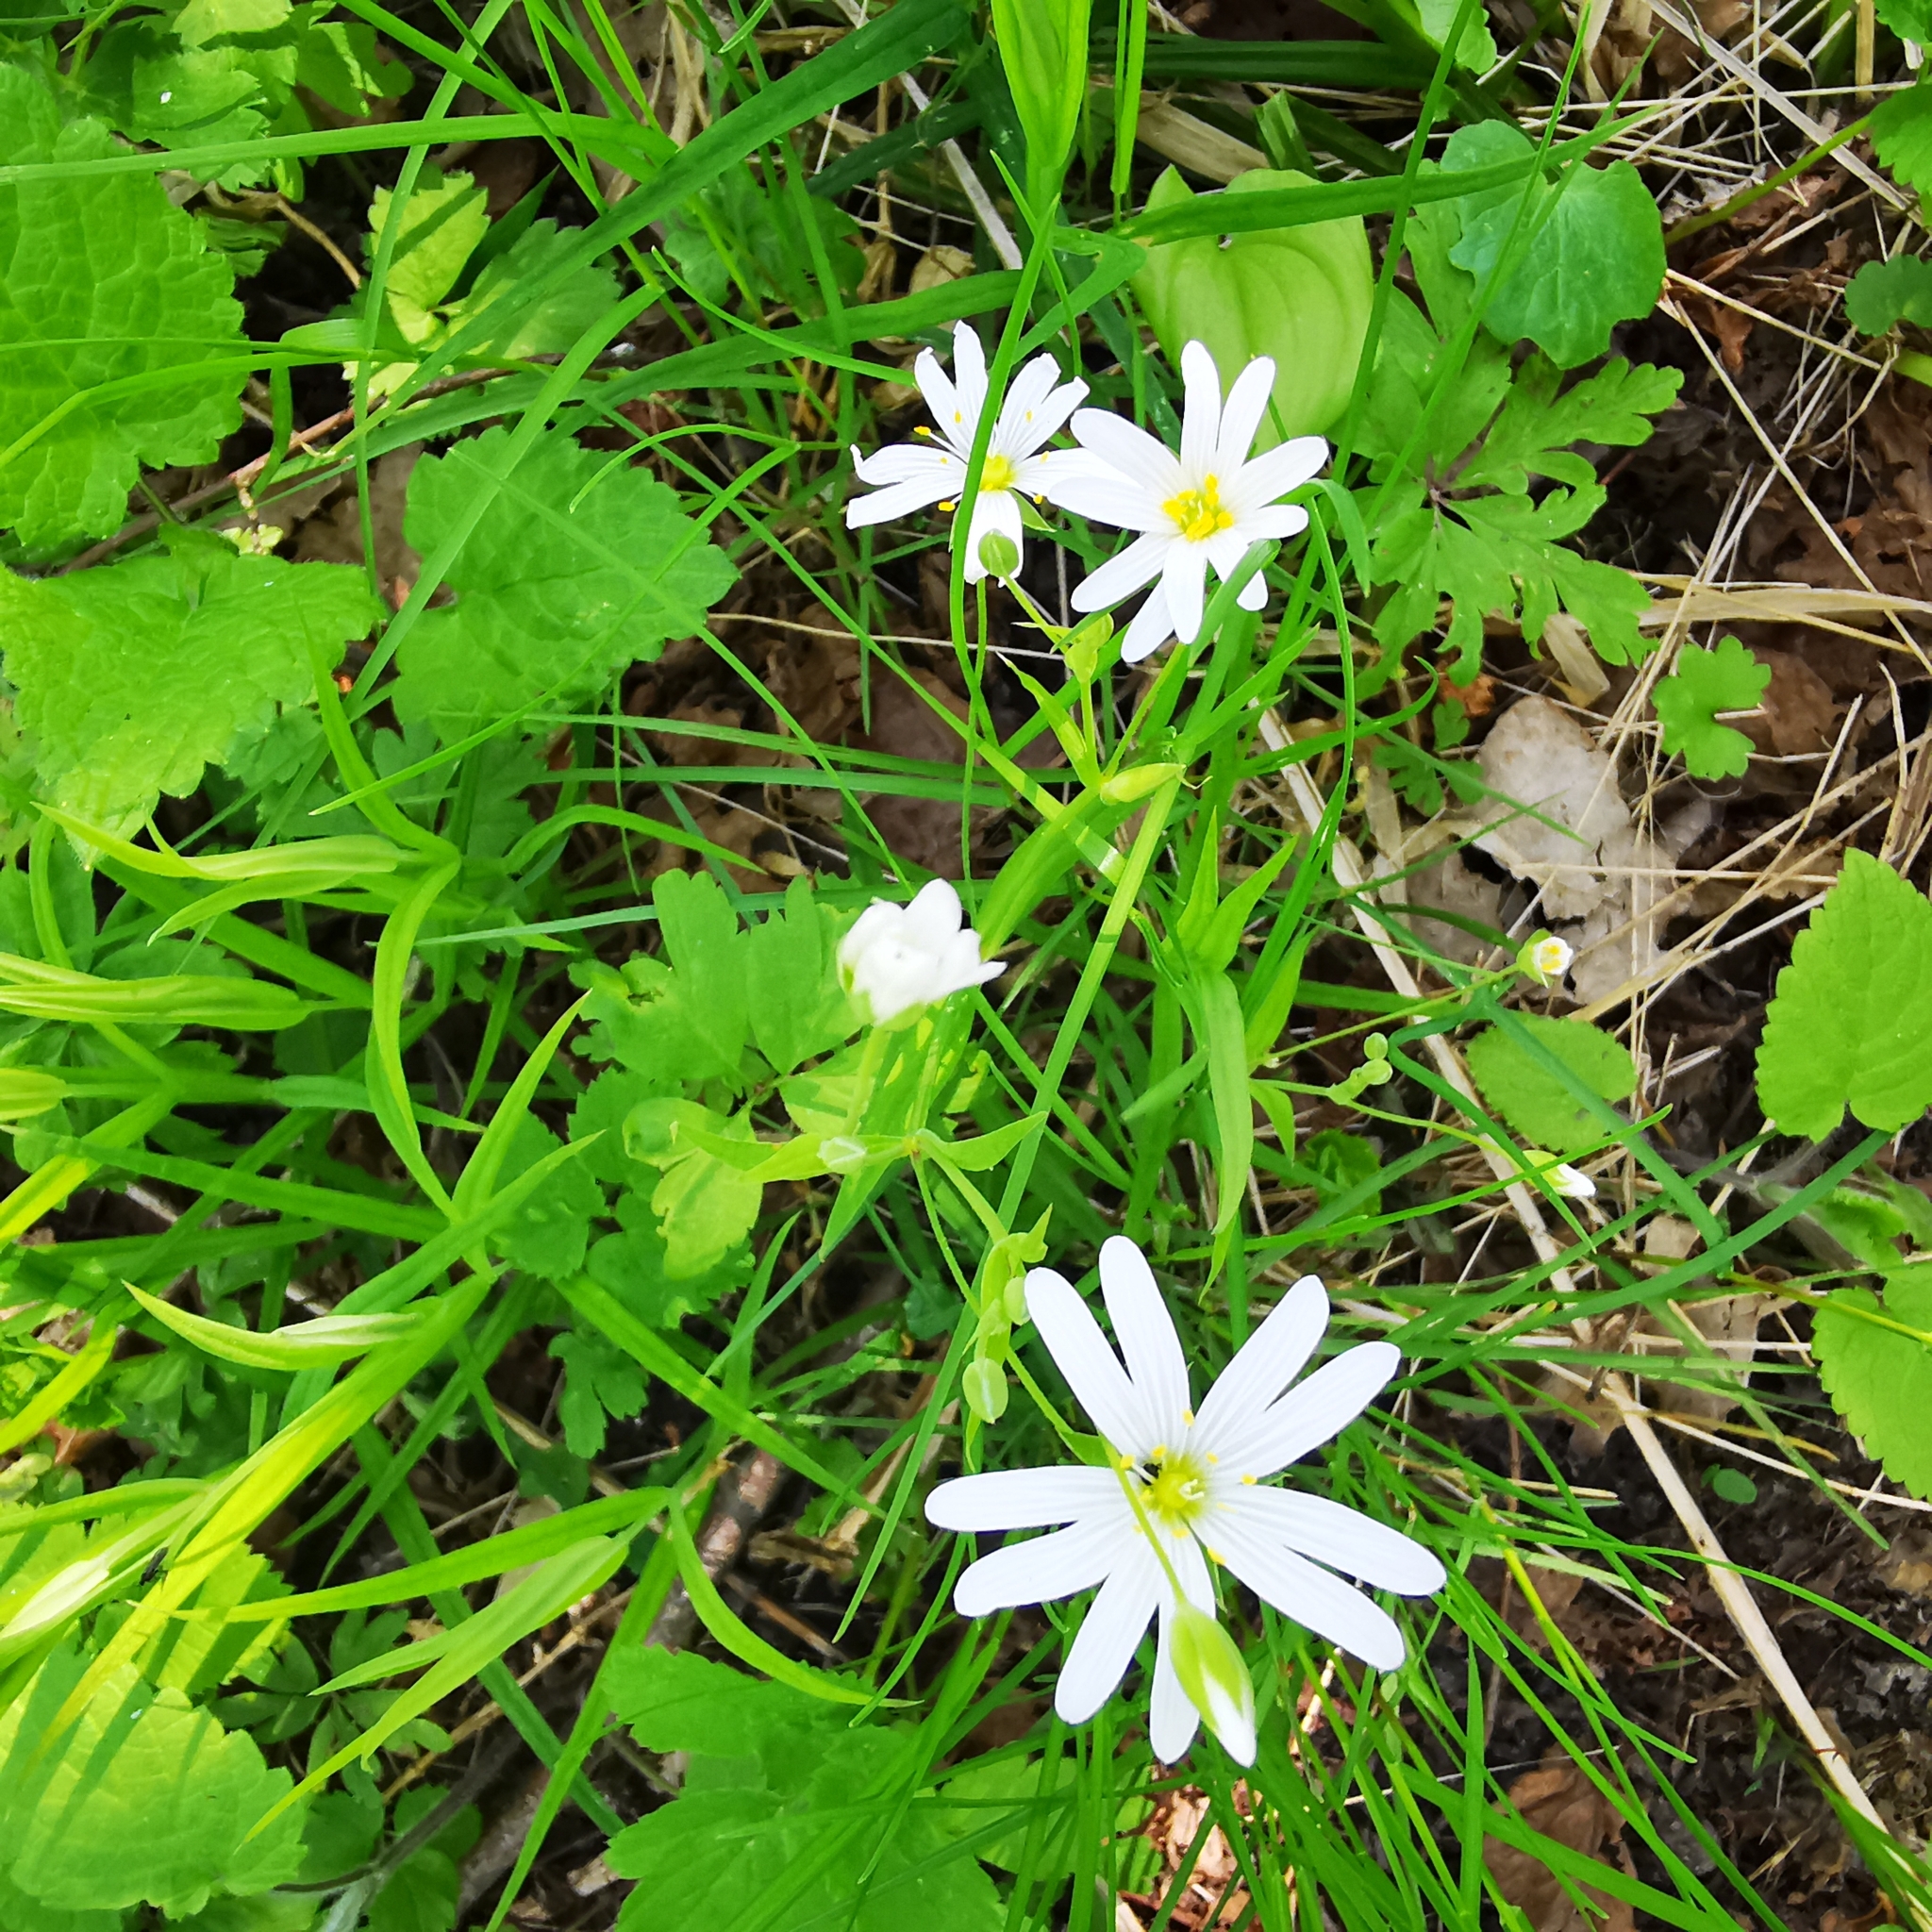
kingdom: Plantae
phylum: Tracheophyta
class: Magnoliopsida
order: Caryophyllales
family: Caryophyllaceae
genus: Rabelera
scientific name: Rabelera holostea
